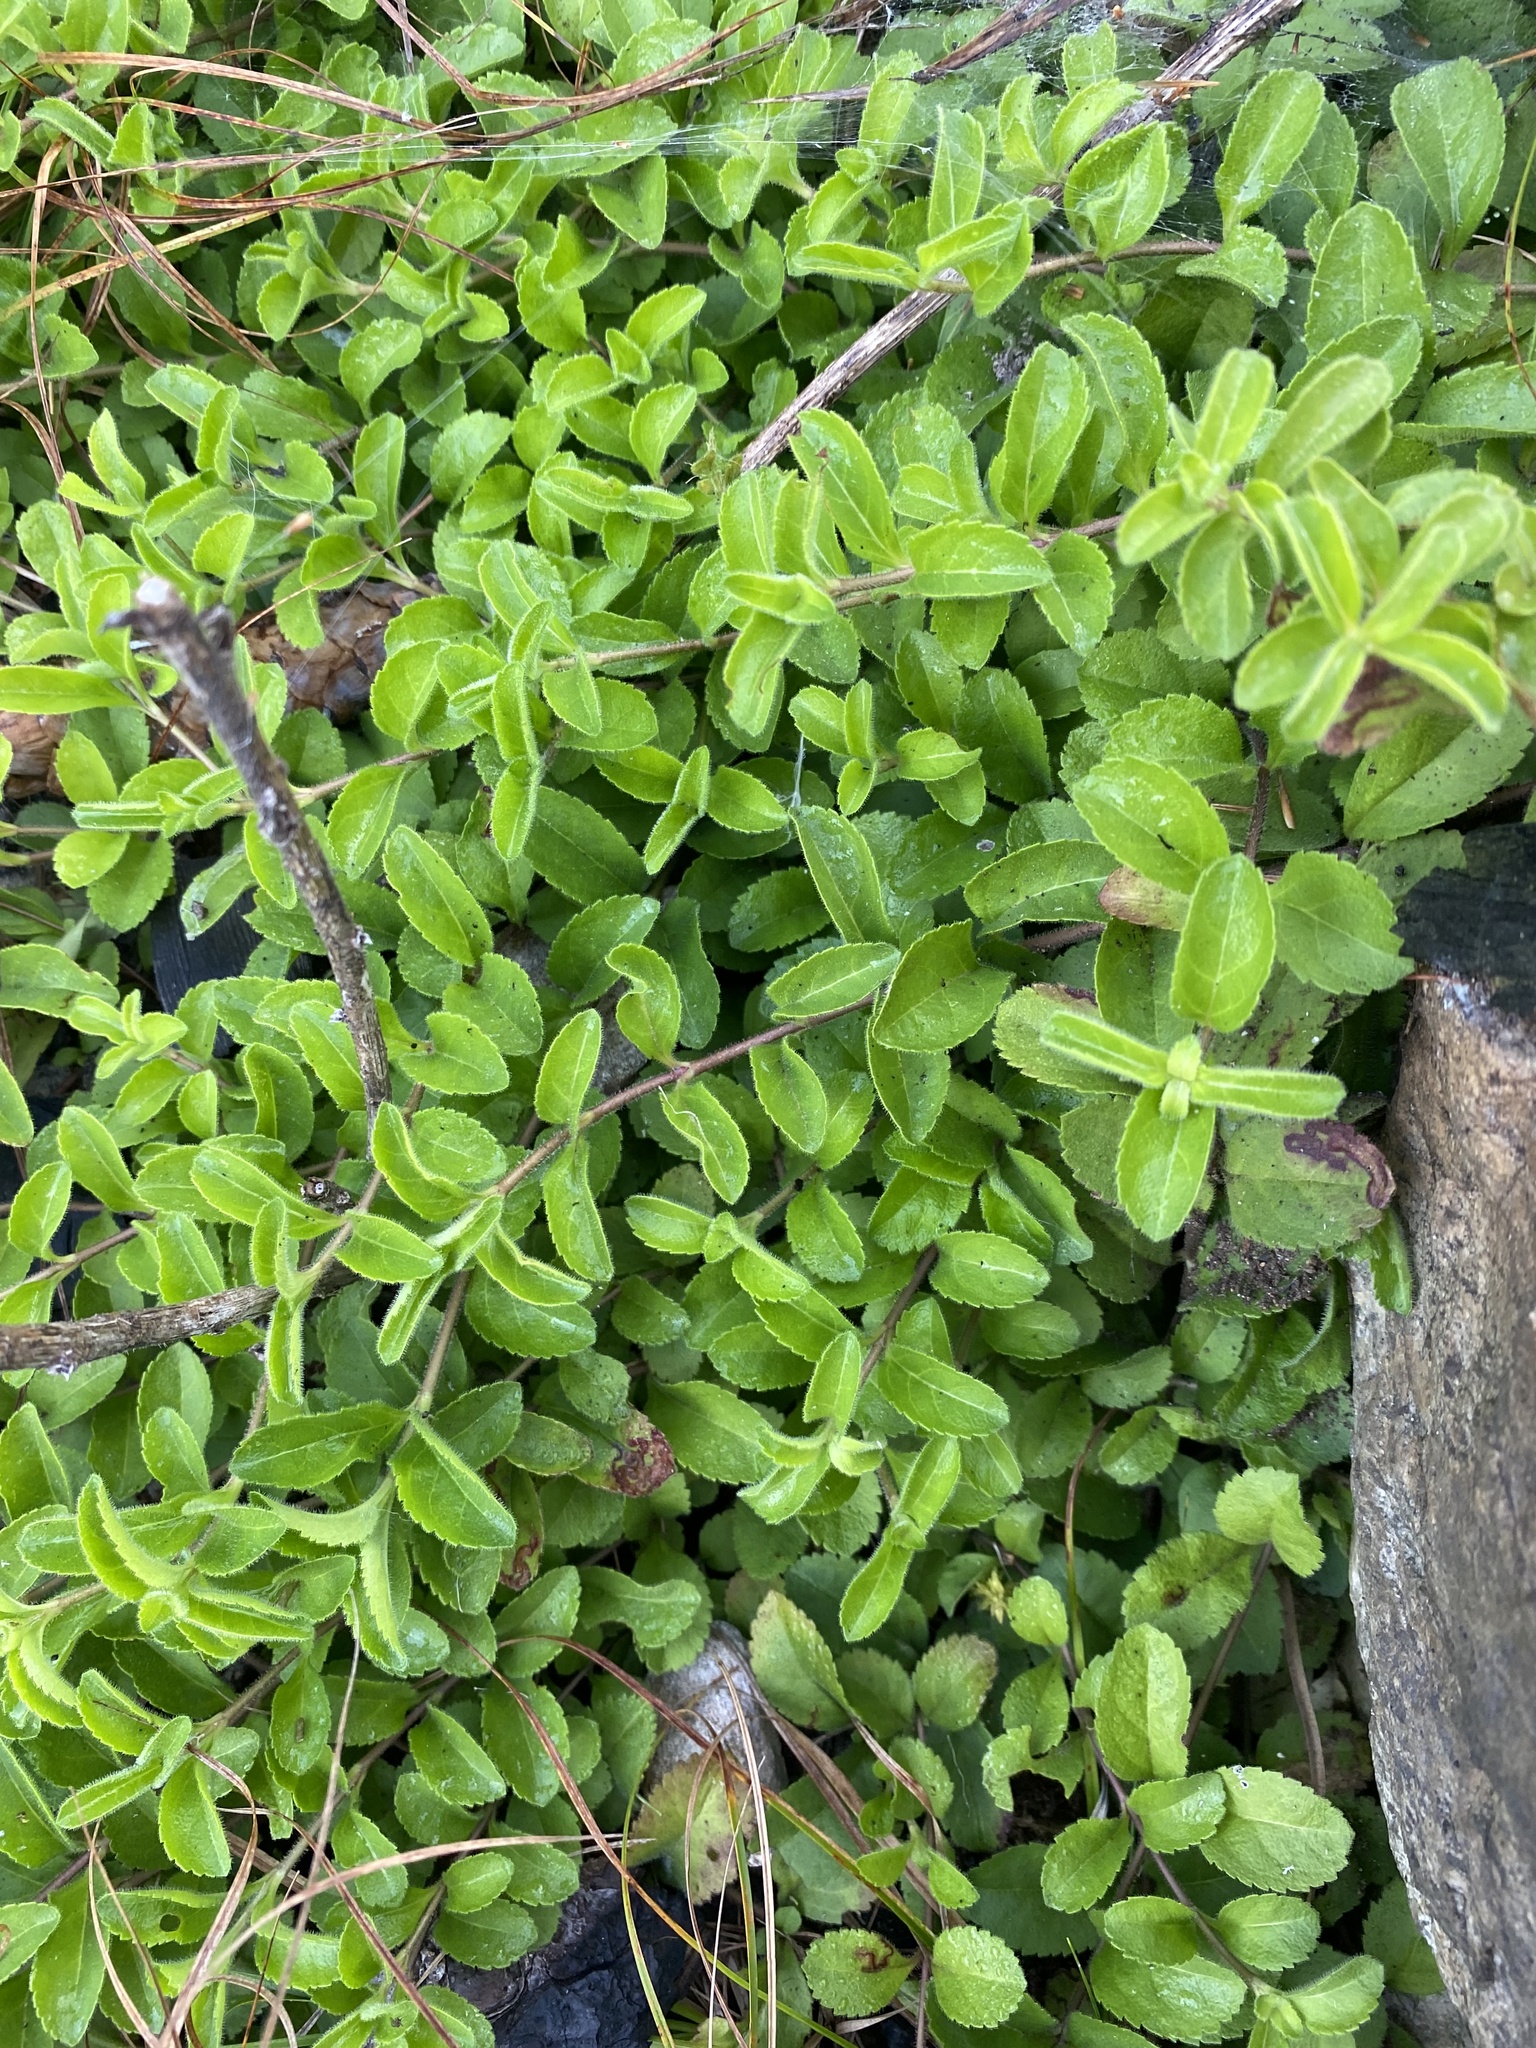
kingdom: Plantae
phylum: Tracheophyta
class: Magnoliopsida
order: Lamiales
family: Plantaginaceae
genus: Veronica
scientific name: Veronica officinalis
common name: Common speedwell
